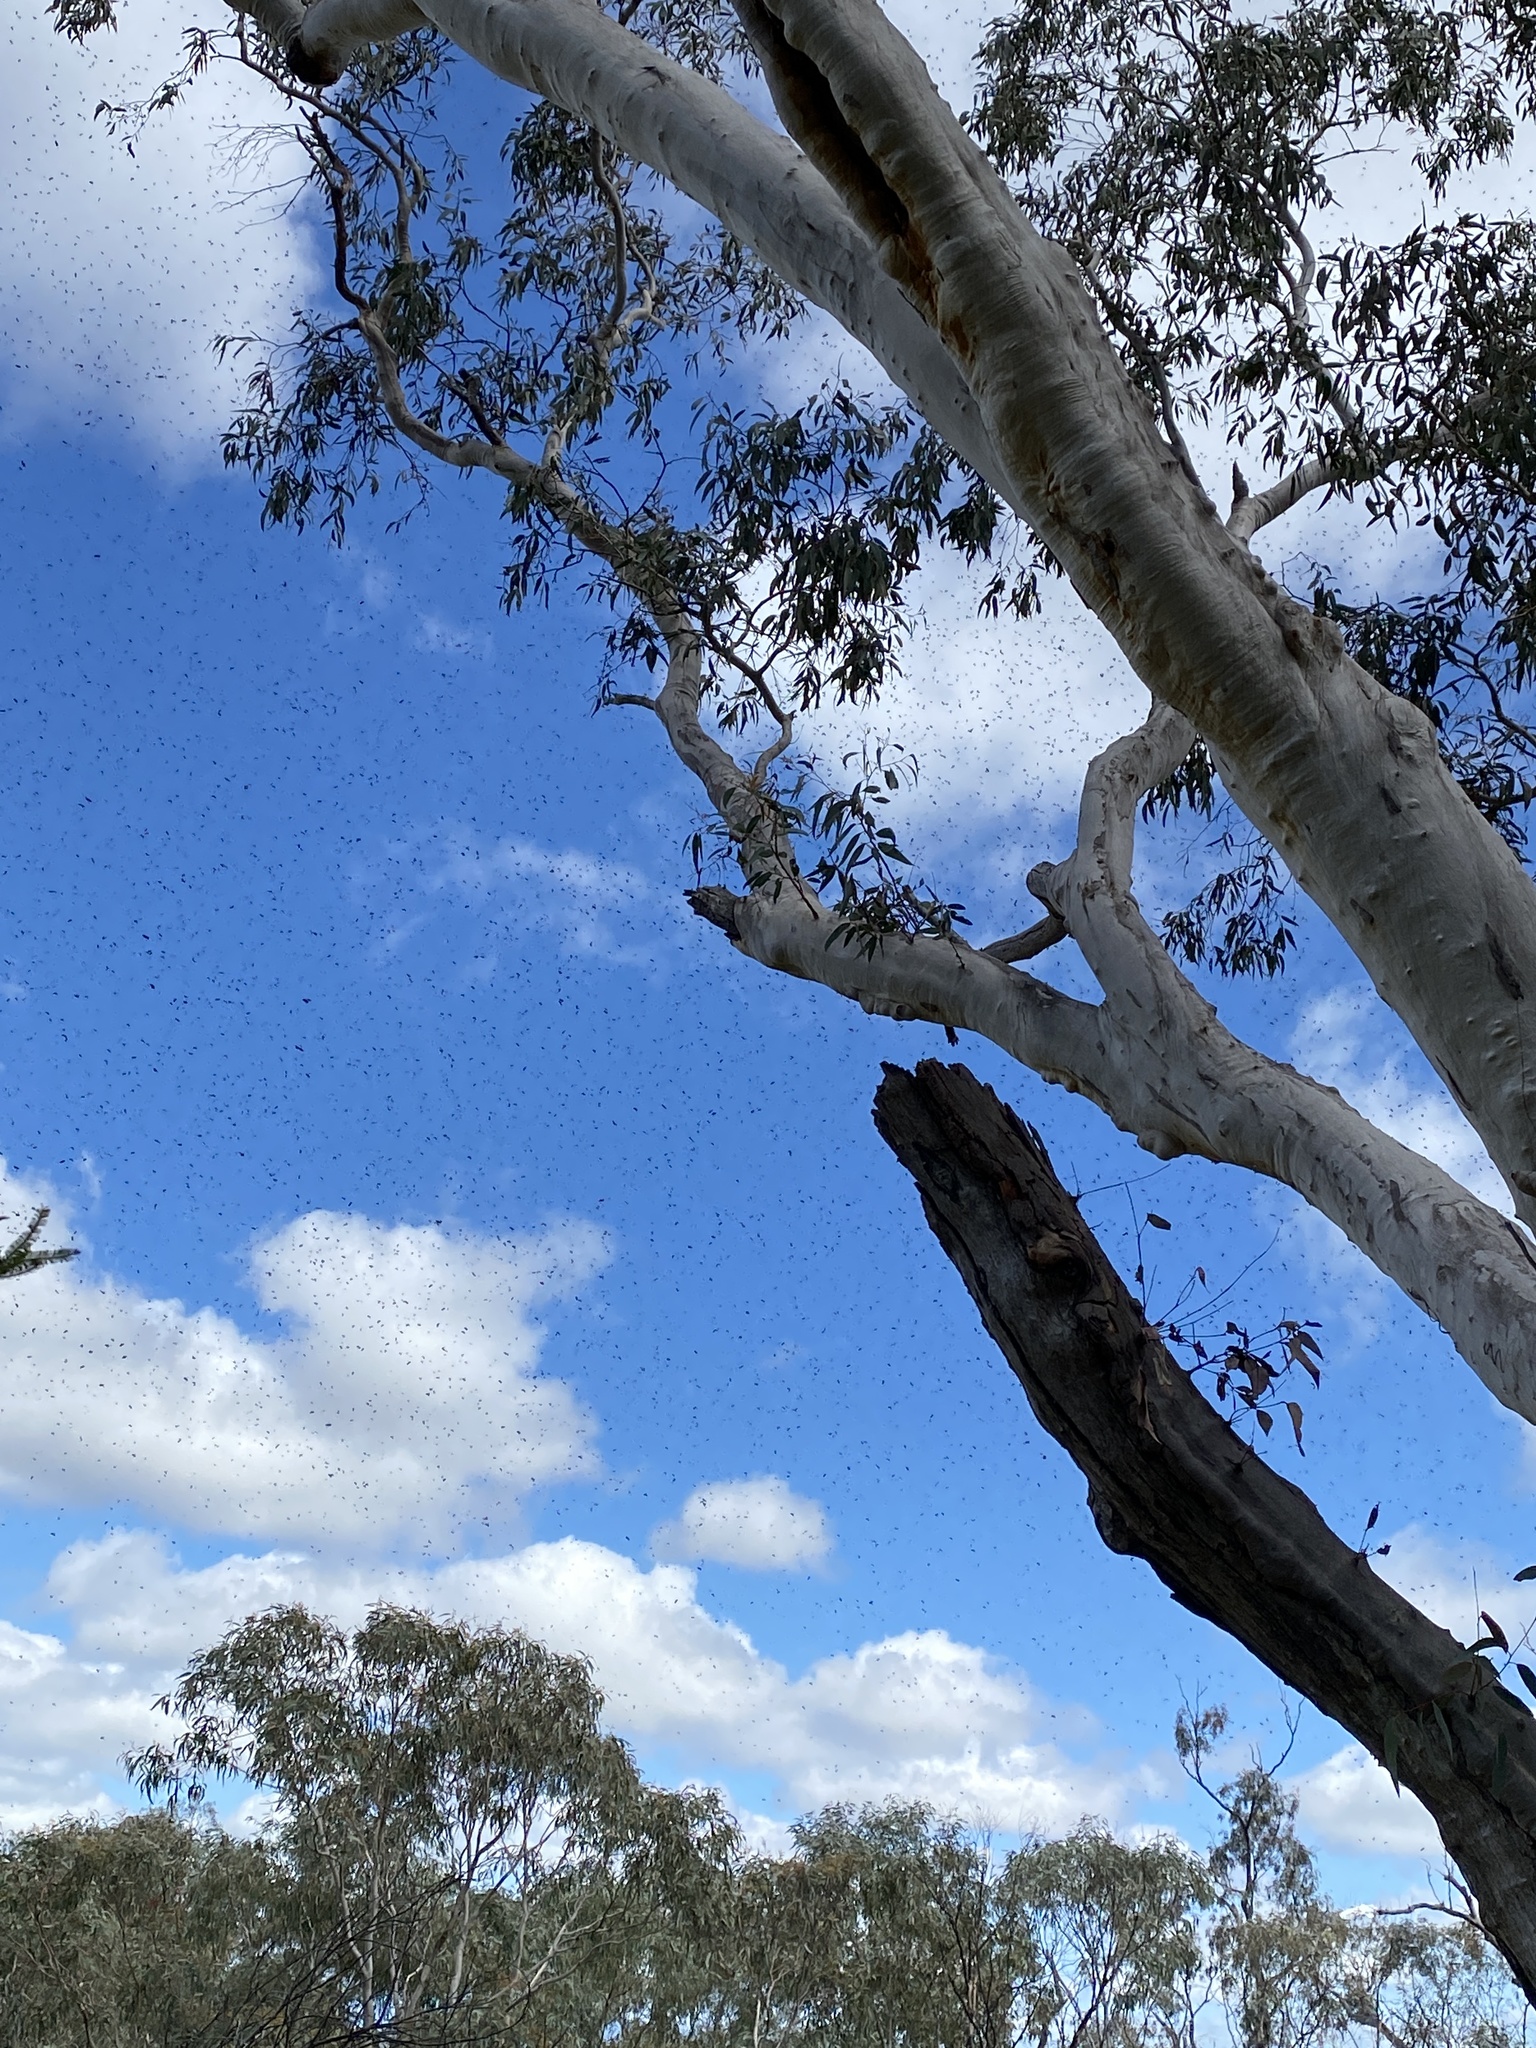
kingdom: Animalia
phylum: Arthropoda
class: Insecta
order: Hymenoptera
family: Apidae
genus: Apis
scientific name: Apis mellifera
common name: Honey bee
